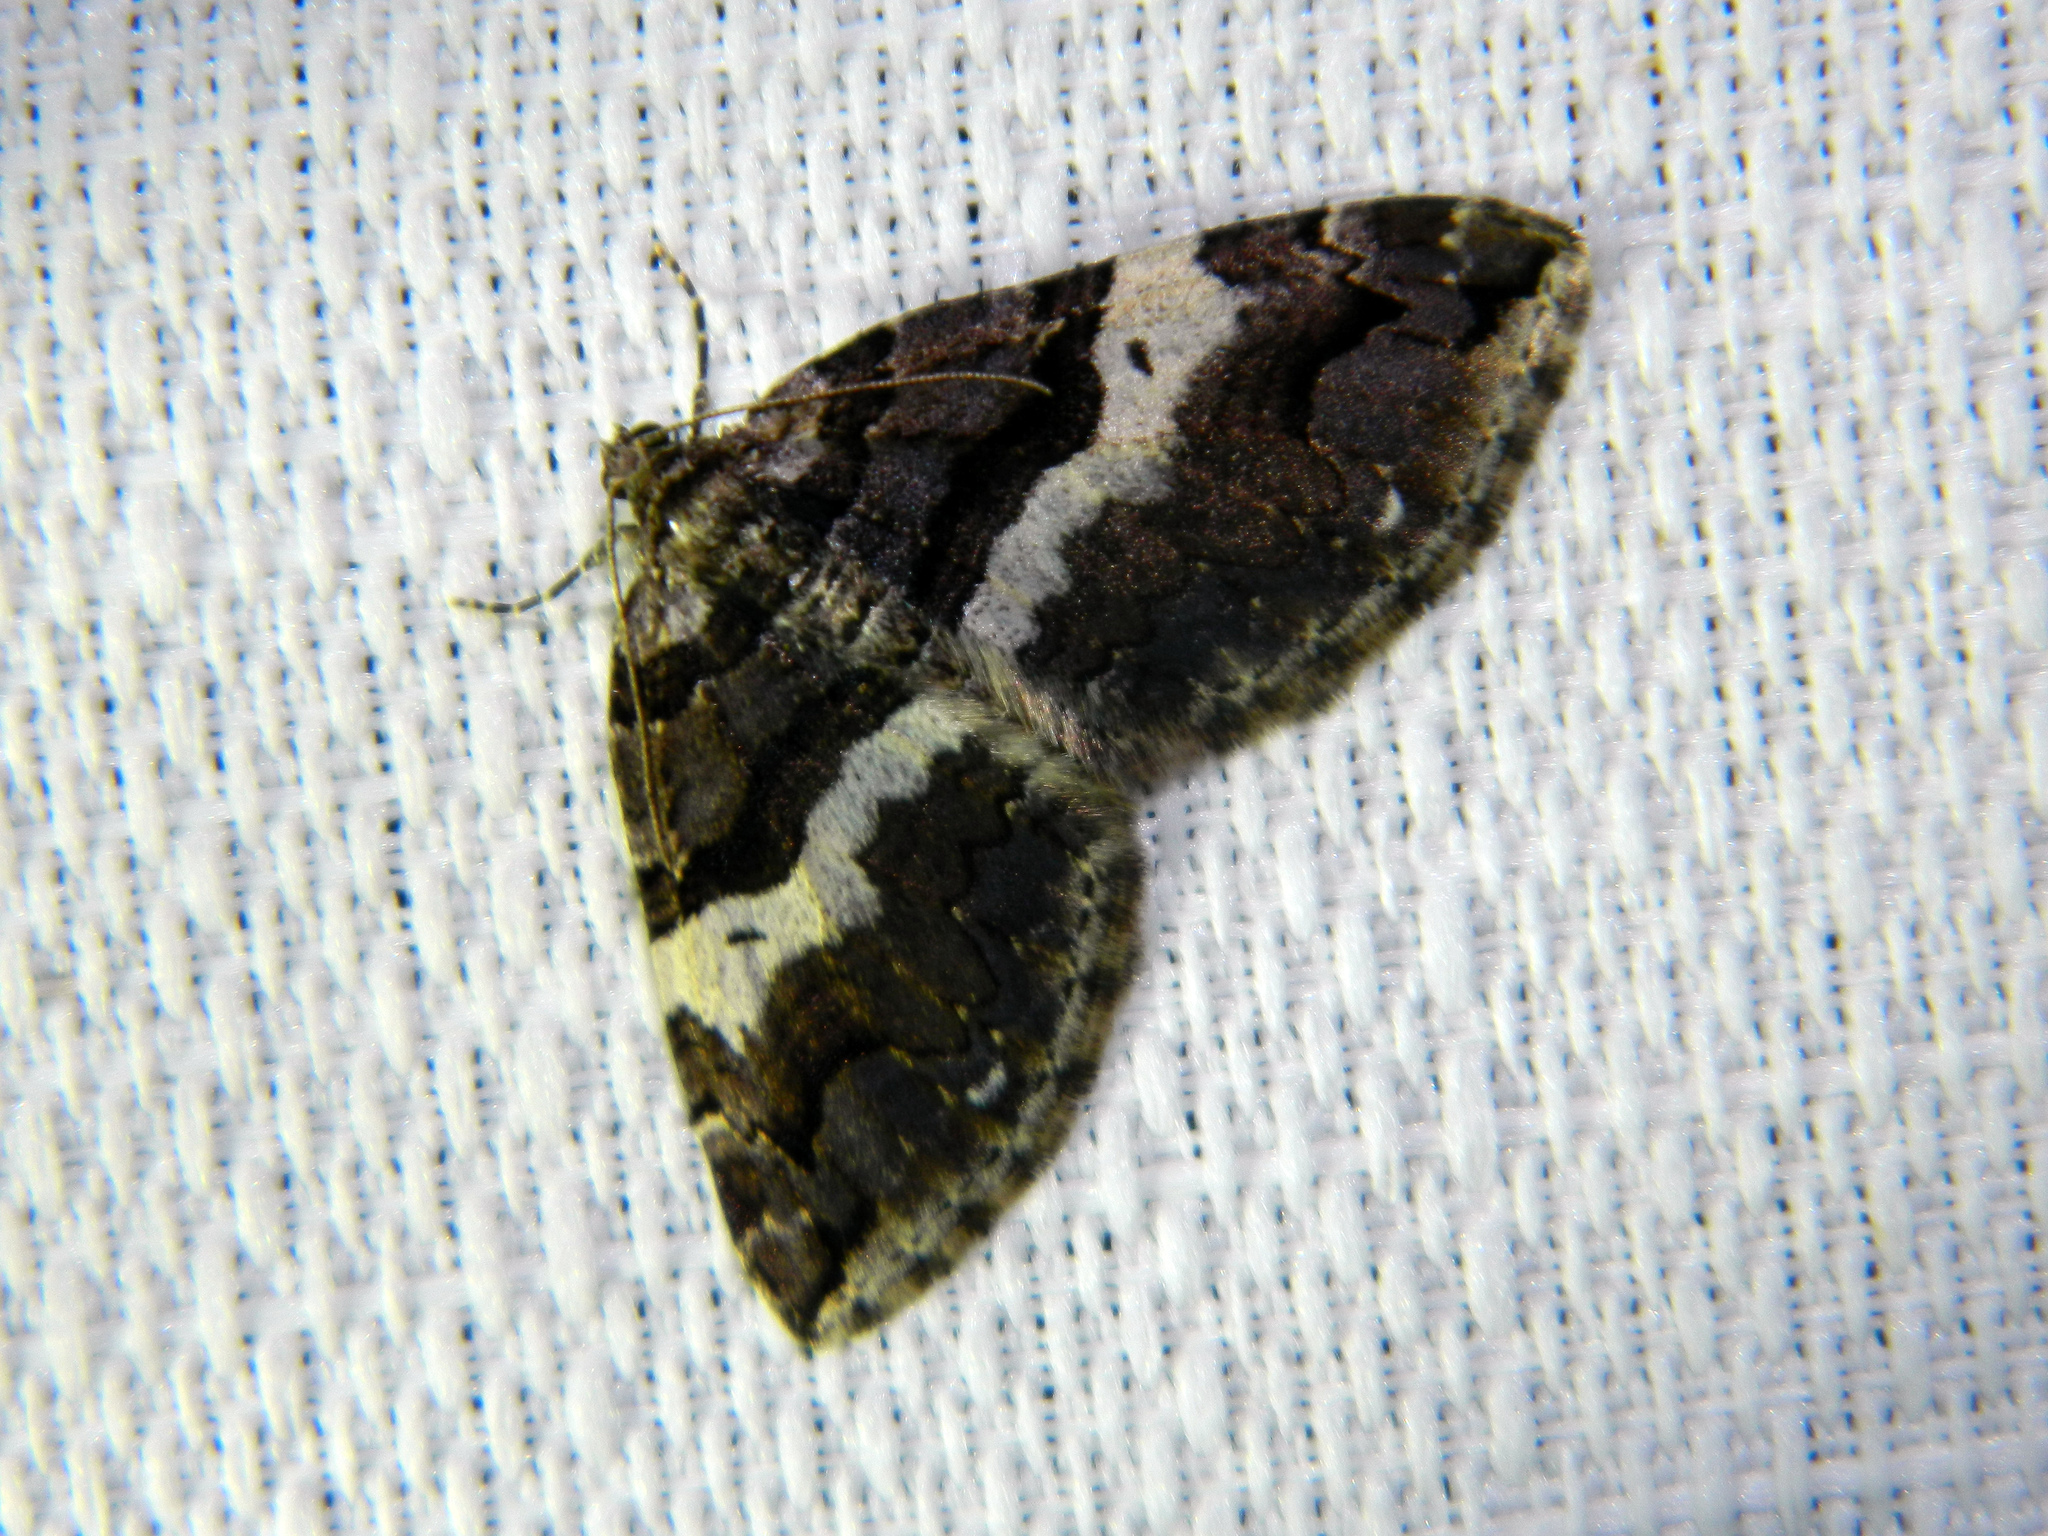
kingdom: Animalia
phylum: Arthropoda
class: Insecta
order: Lepidoptera
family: Geometridae
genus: Anticlea
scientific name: Anticlea vasiliata
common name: Variable carpet
